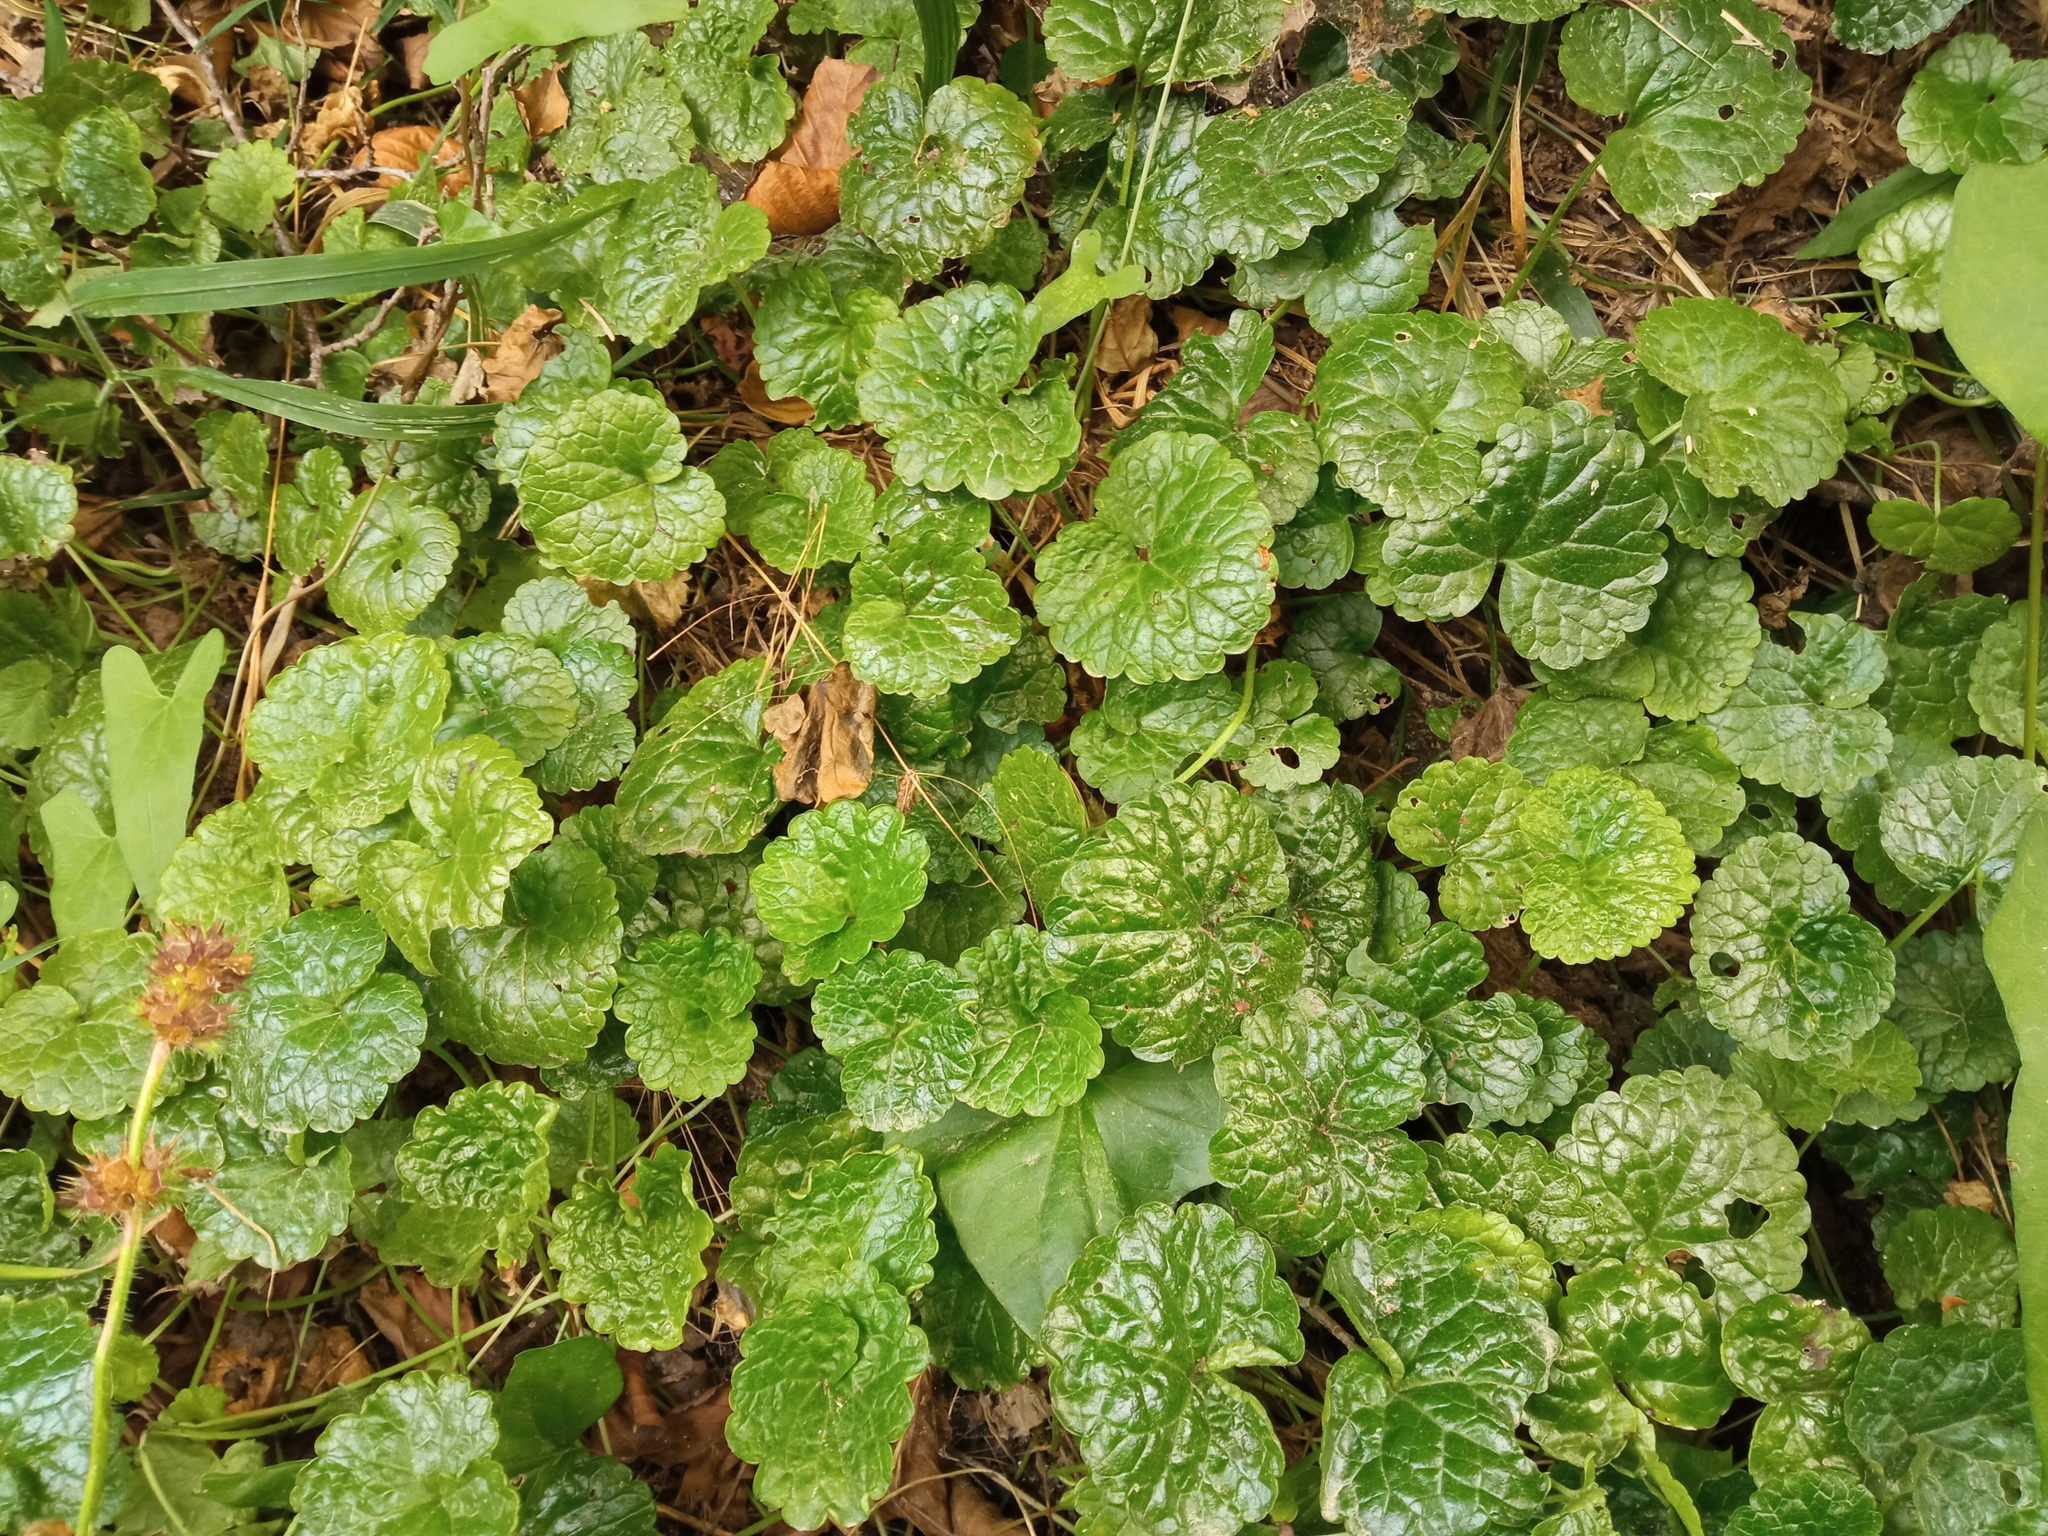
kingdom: Plantae
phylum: Tracheophyta
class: Magnoliopsida
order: Lamiales
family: Lamiaceae
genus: Glechoma
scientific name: Glechoma hederacea
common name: Ground ivy
